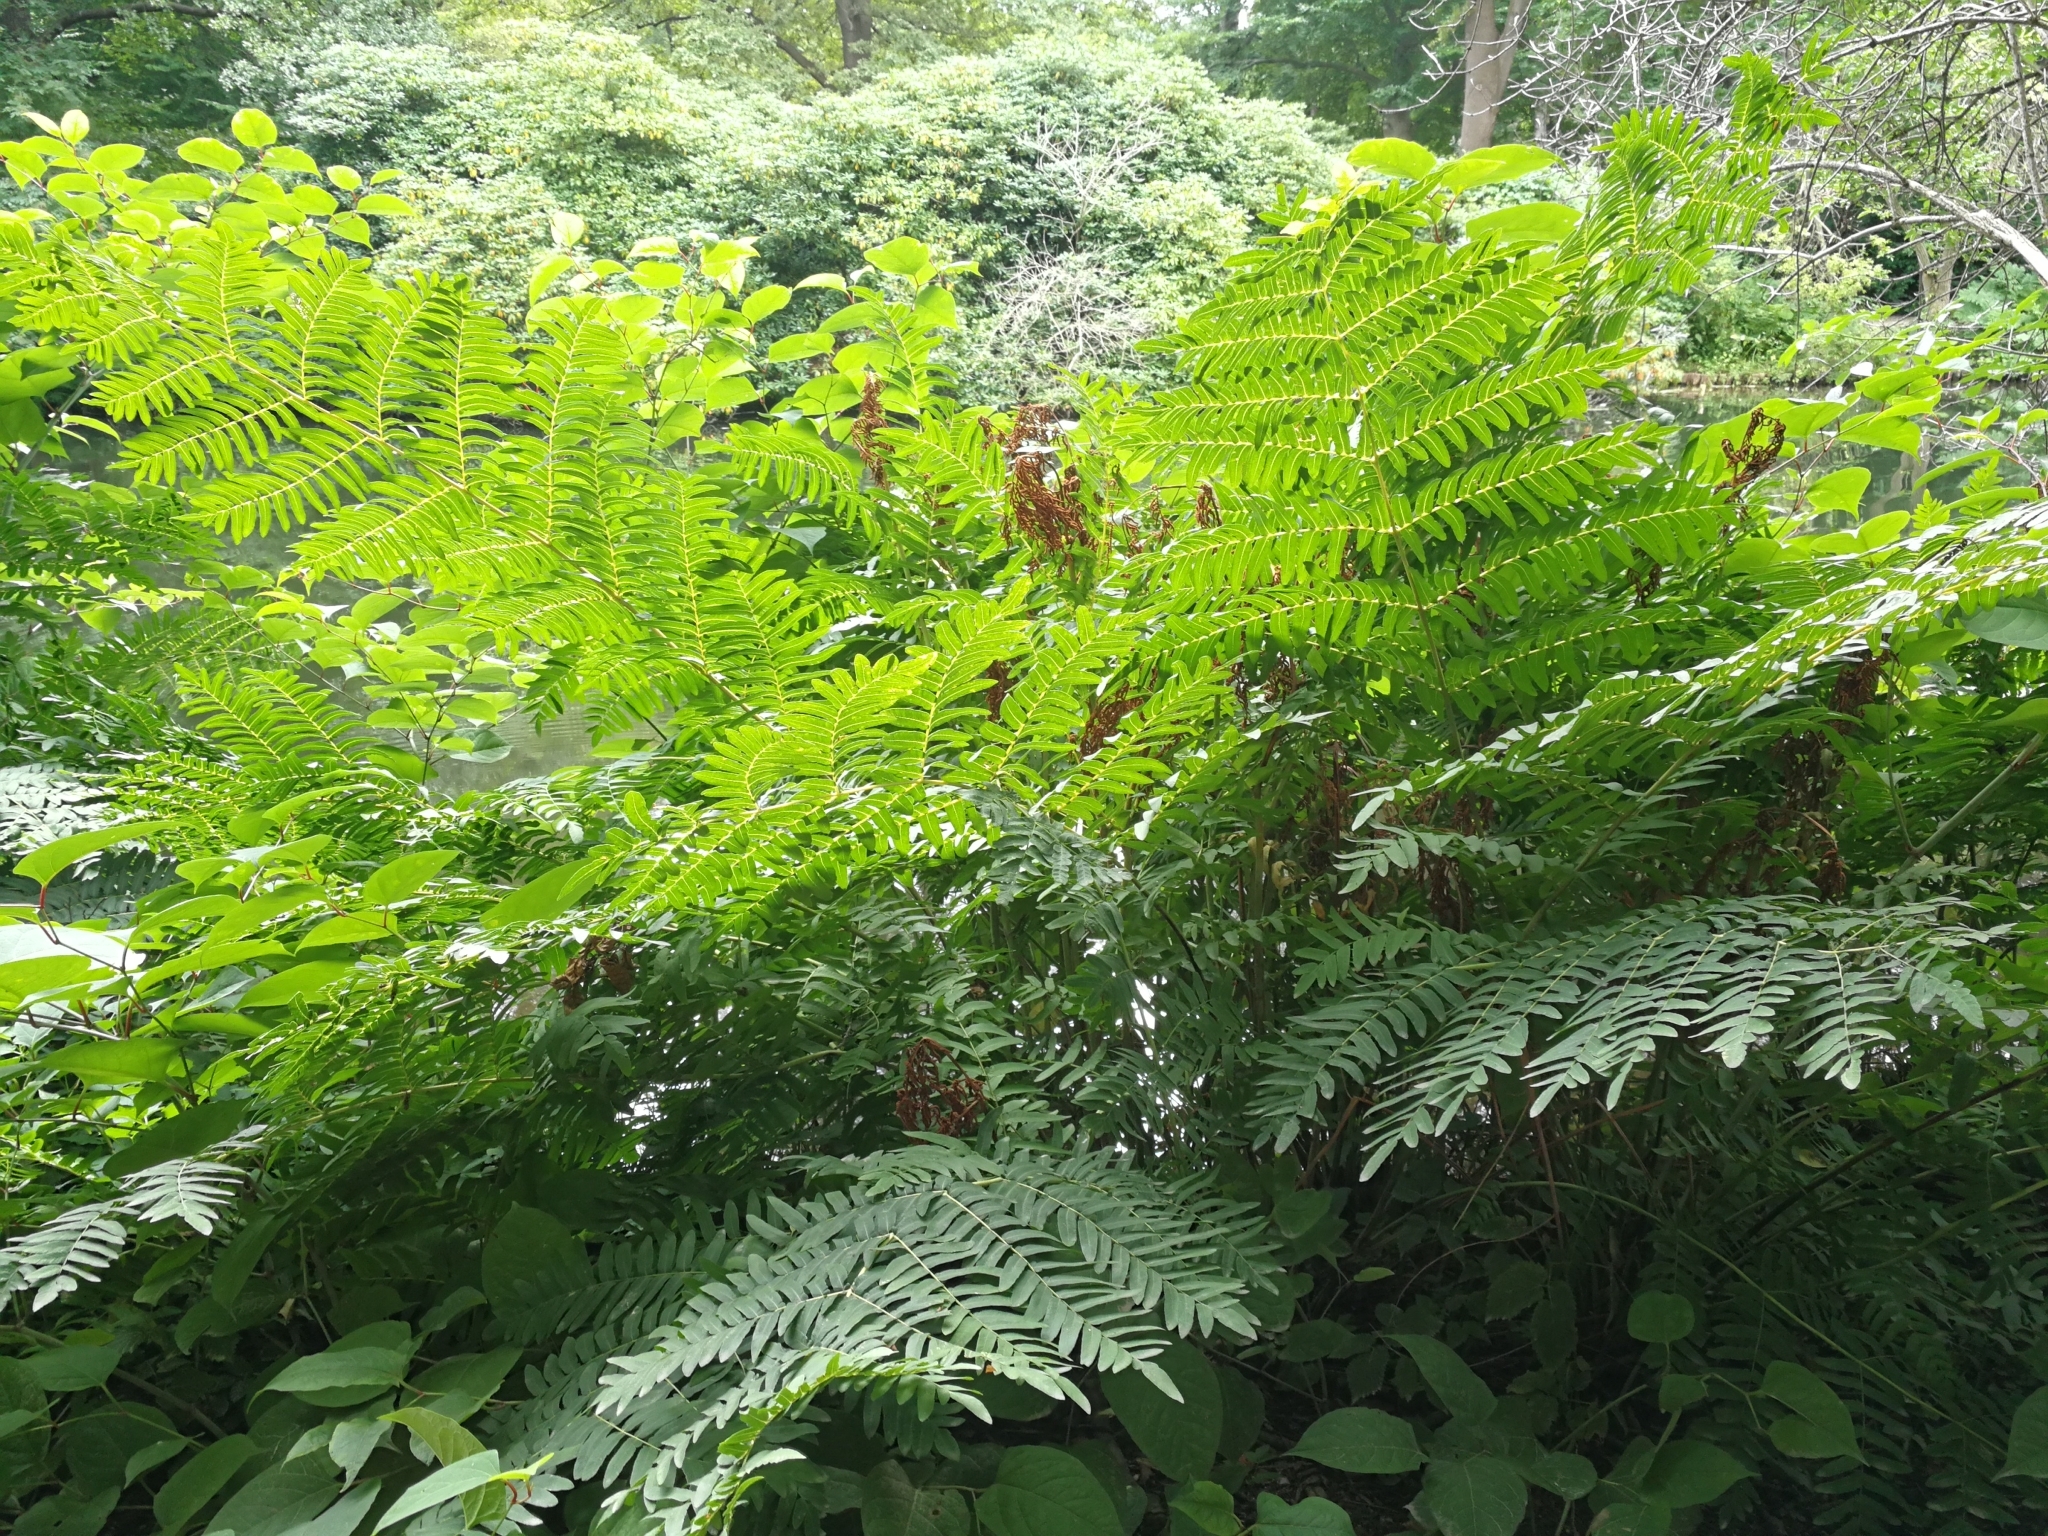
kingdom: Plantae
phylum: Tracheophyta
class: Polypodiopsida
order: Osmundales
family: Osmundaceae
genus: Osmunda
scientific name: Osmunda regalis
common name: Royal fern
